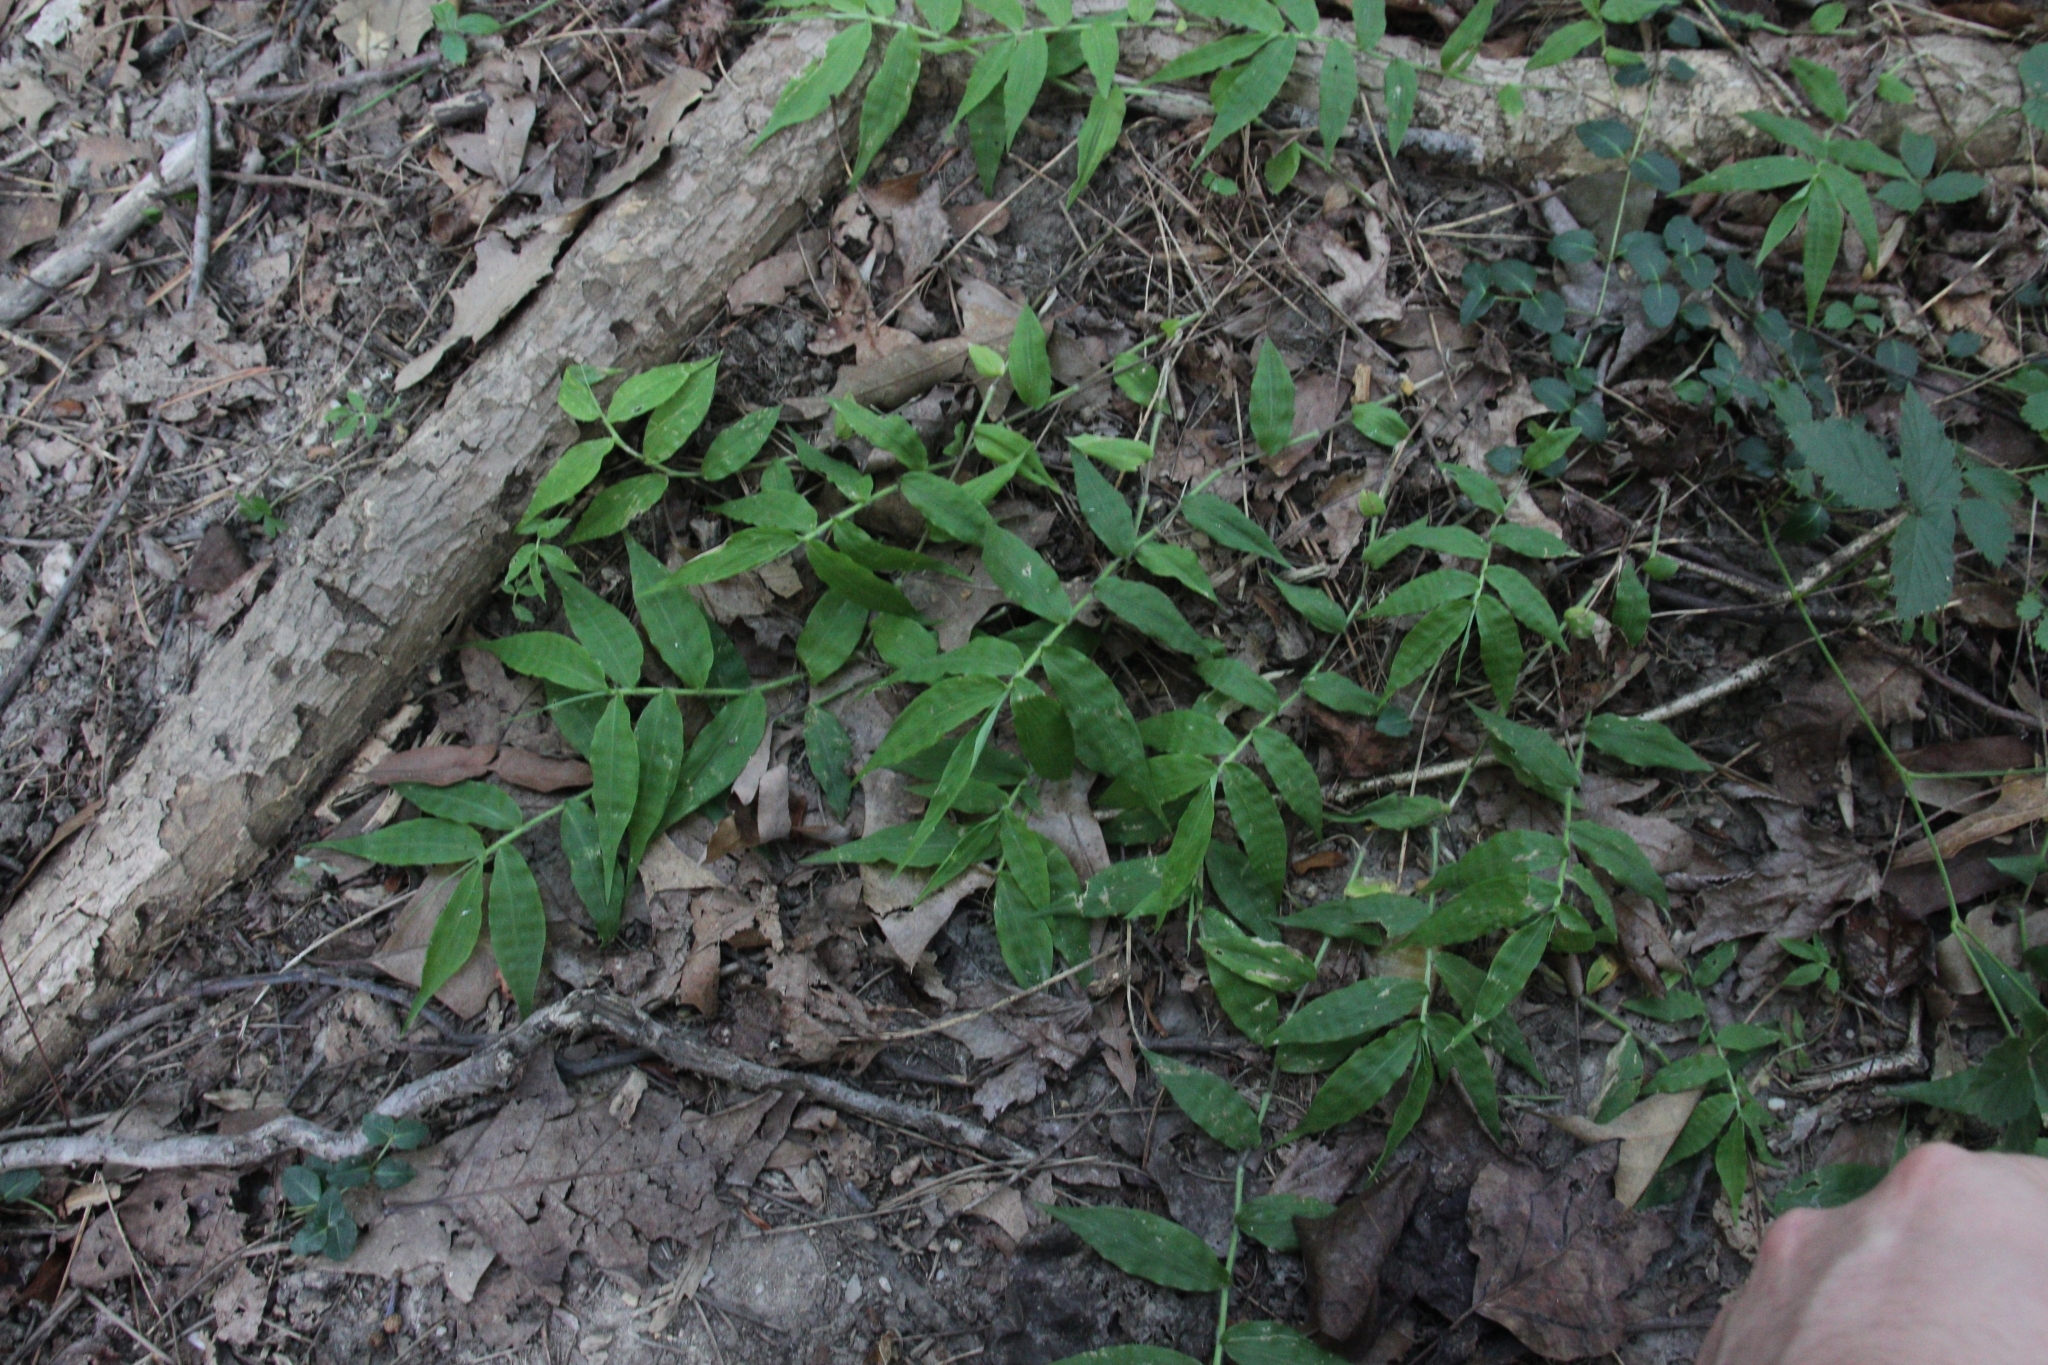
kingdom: Plantae
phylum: Tracheophyta
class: Liliopsida
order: Poales
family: Poaceae
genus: Oplismenus
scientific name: Oplismenus undulatifolius
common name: Wavyleaf basketgrass
